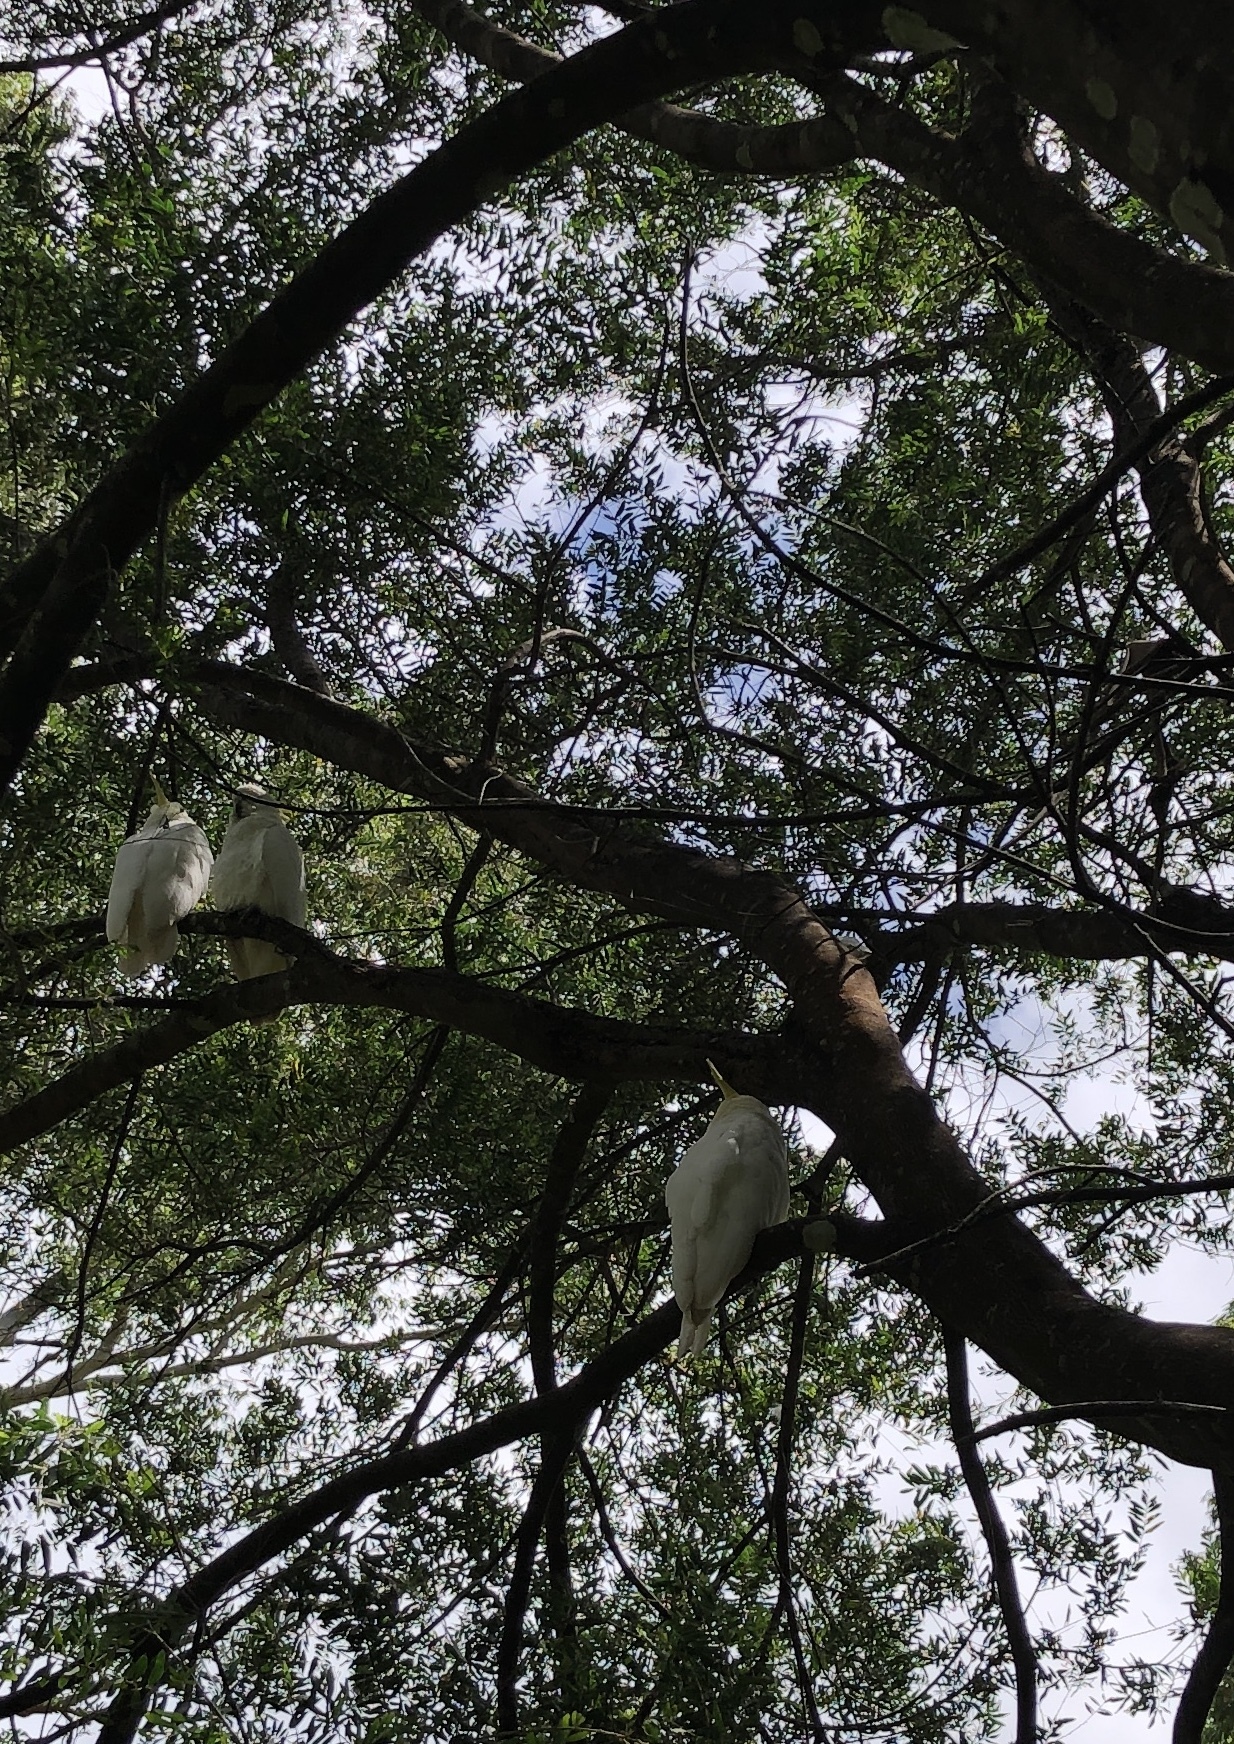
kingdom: Animalia
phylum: Chordata
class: Aves
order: Psittaciformes
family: Psittacidae
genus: Cacatua
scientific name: Cacatua galerita
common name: Sulphur-crested cockatoo
